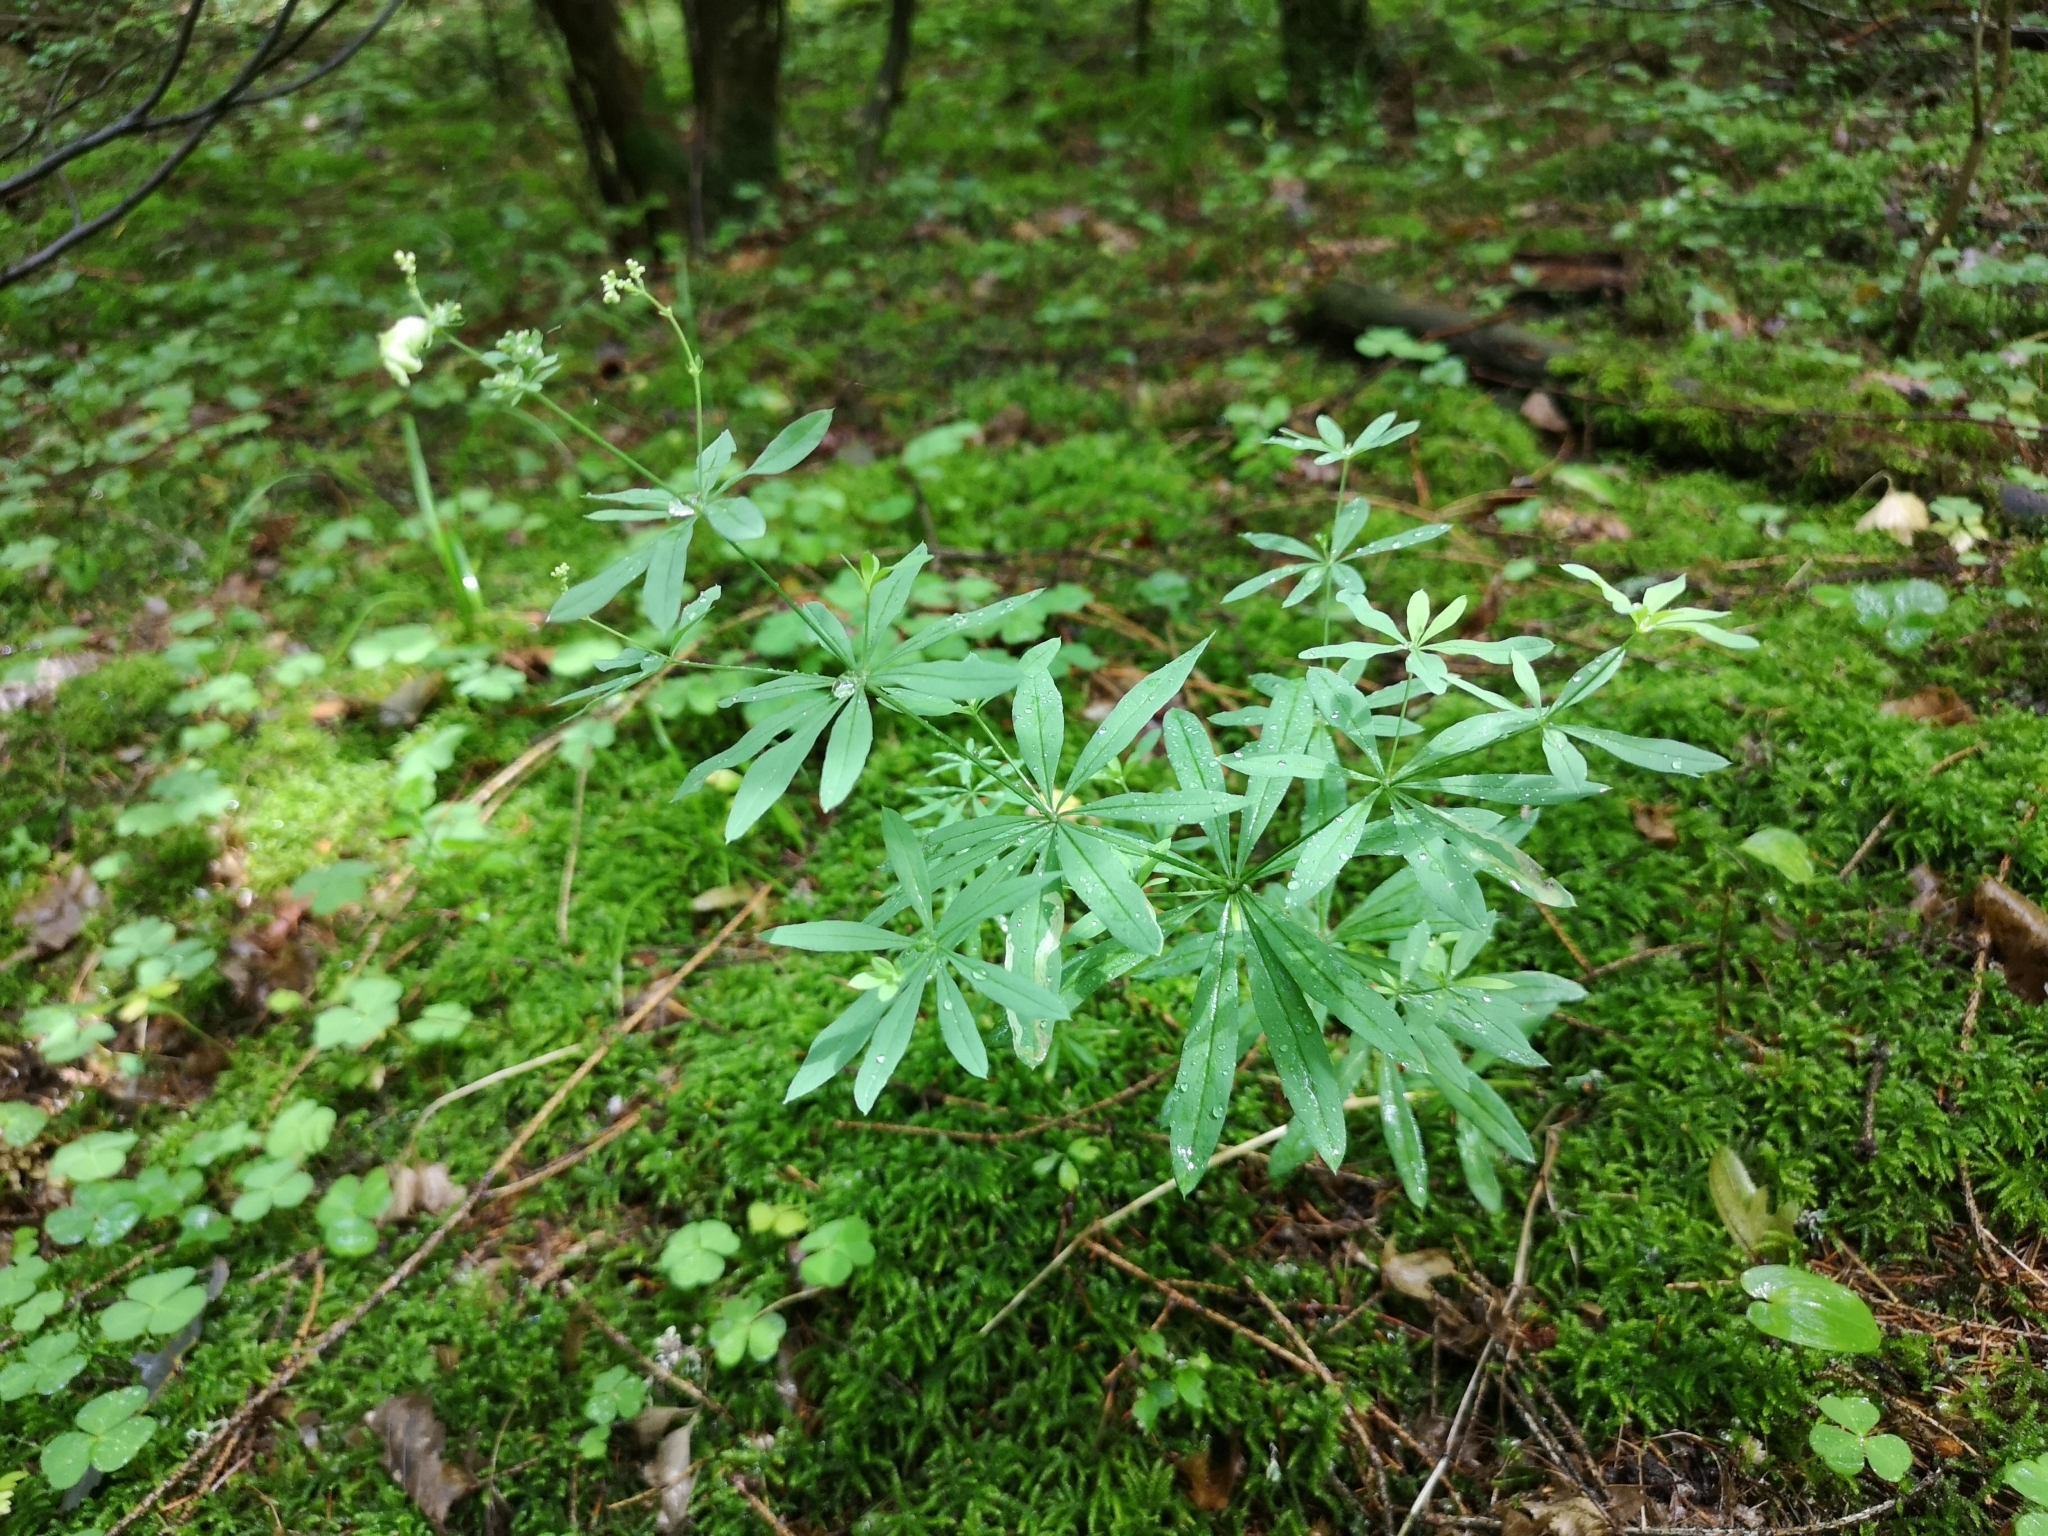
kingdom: Plantae
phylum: Tracheophyta
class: Magnoliopsida
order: Gentianales
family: Rubiaceae
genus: Galium
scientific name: Galium intermedium
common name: Bedstraw
